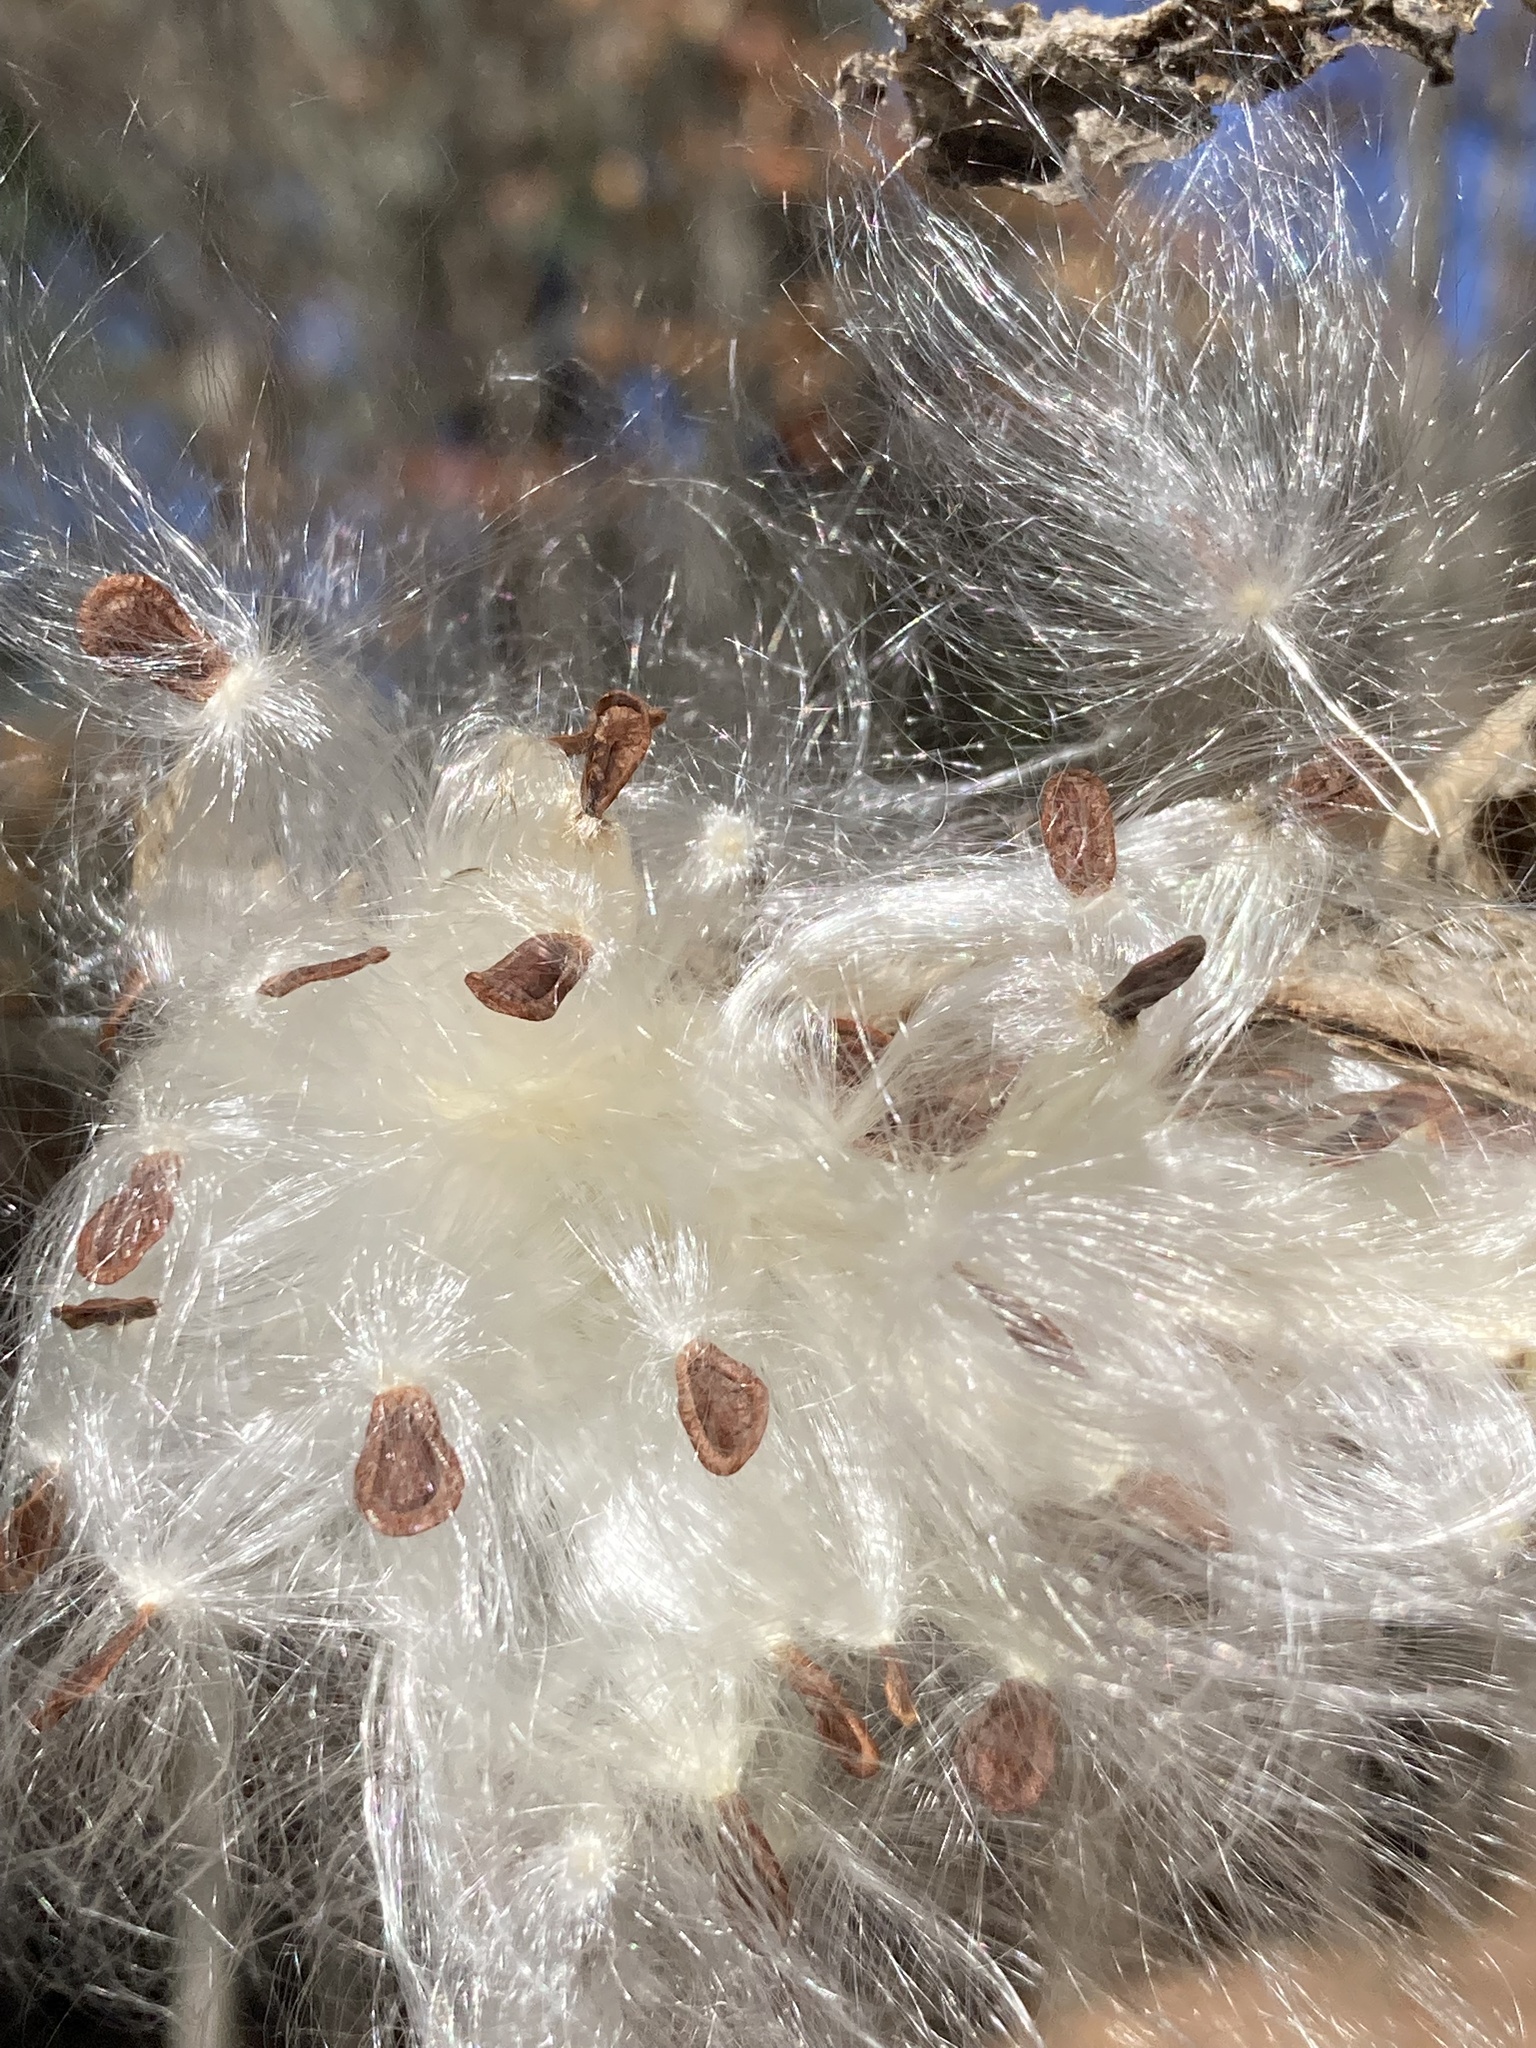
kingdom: Plantae
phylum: Tracheophyta
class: Magnoliopsida
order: Gentianales
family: Apocynaceae
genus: Asclepias
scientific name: Asclepias syriaca
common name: Common milkweed
